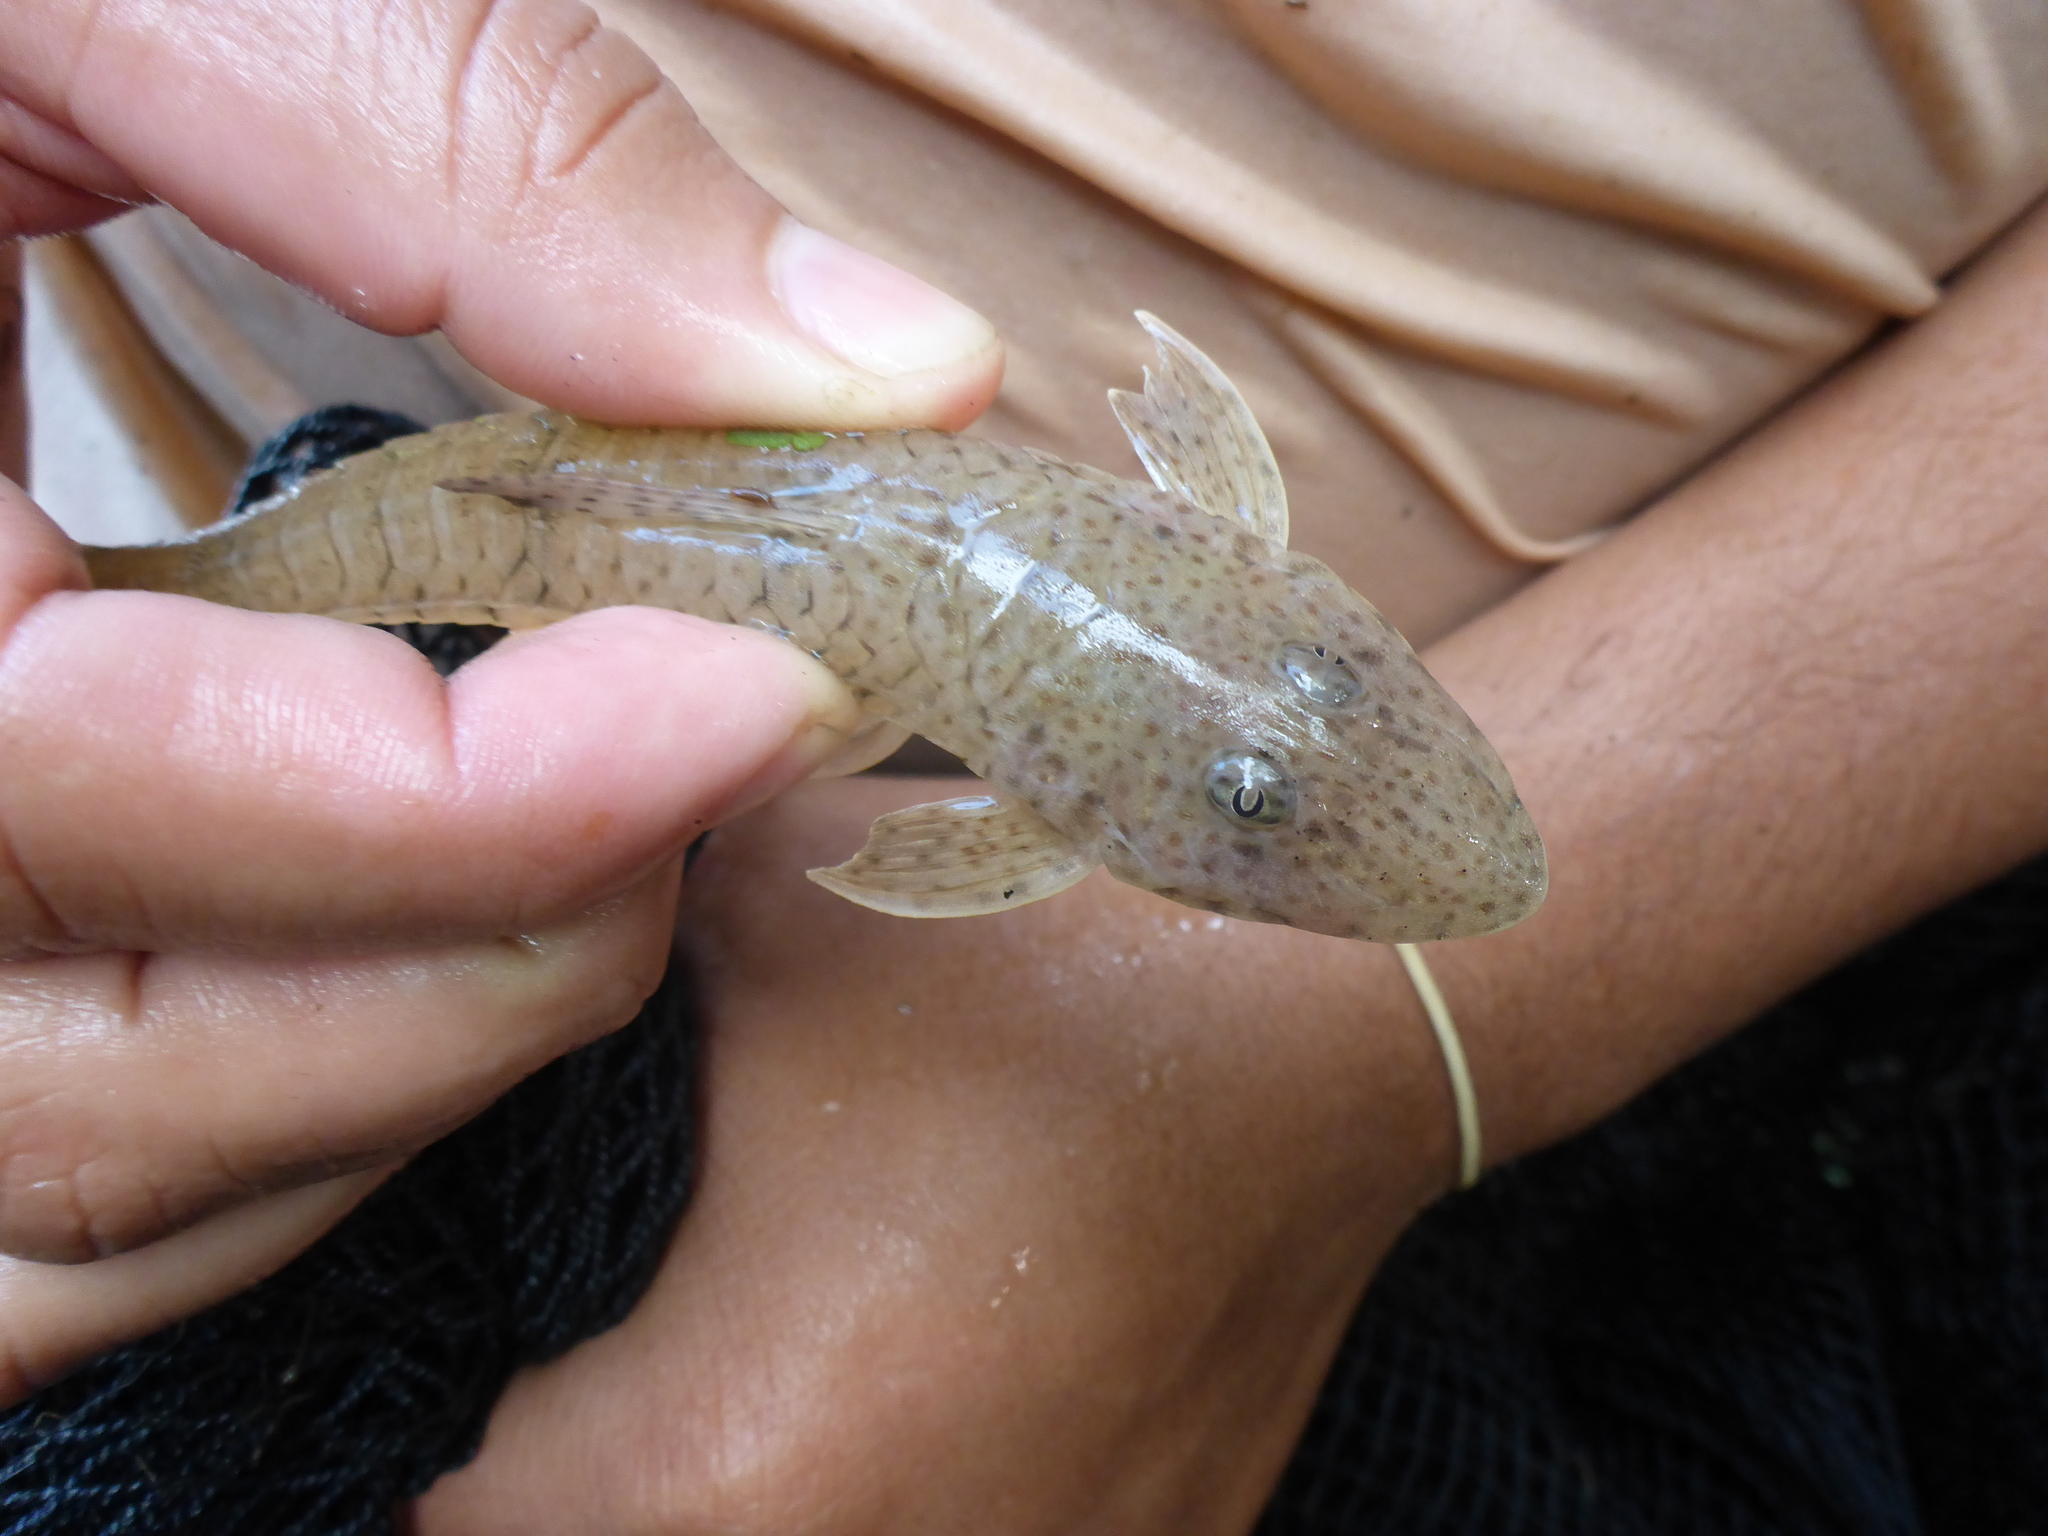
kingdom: Animalia
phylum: Chordata
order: Siluriformes
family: Loricariidae
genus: Limatulichthys
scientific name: Limatulichthys griseus
